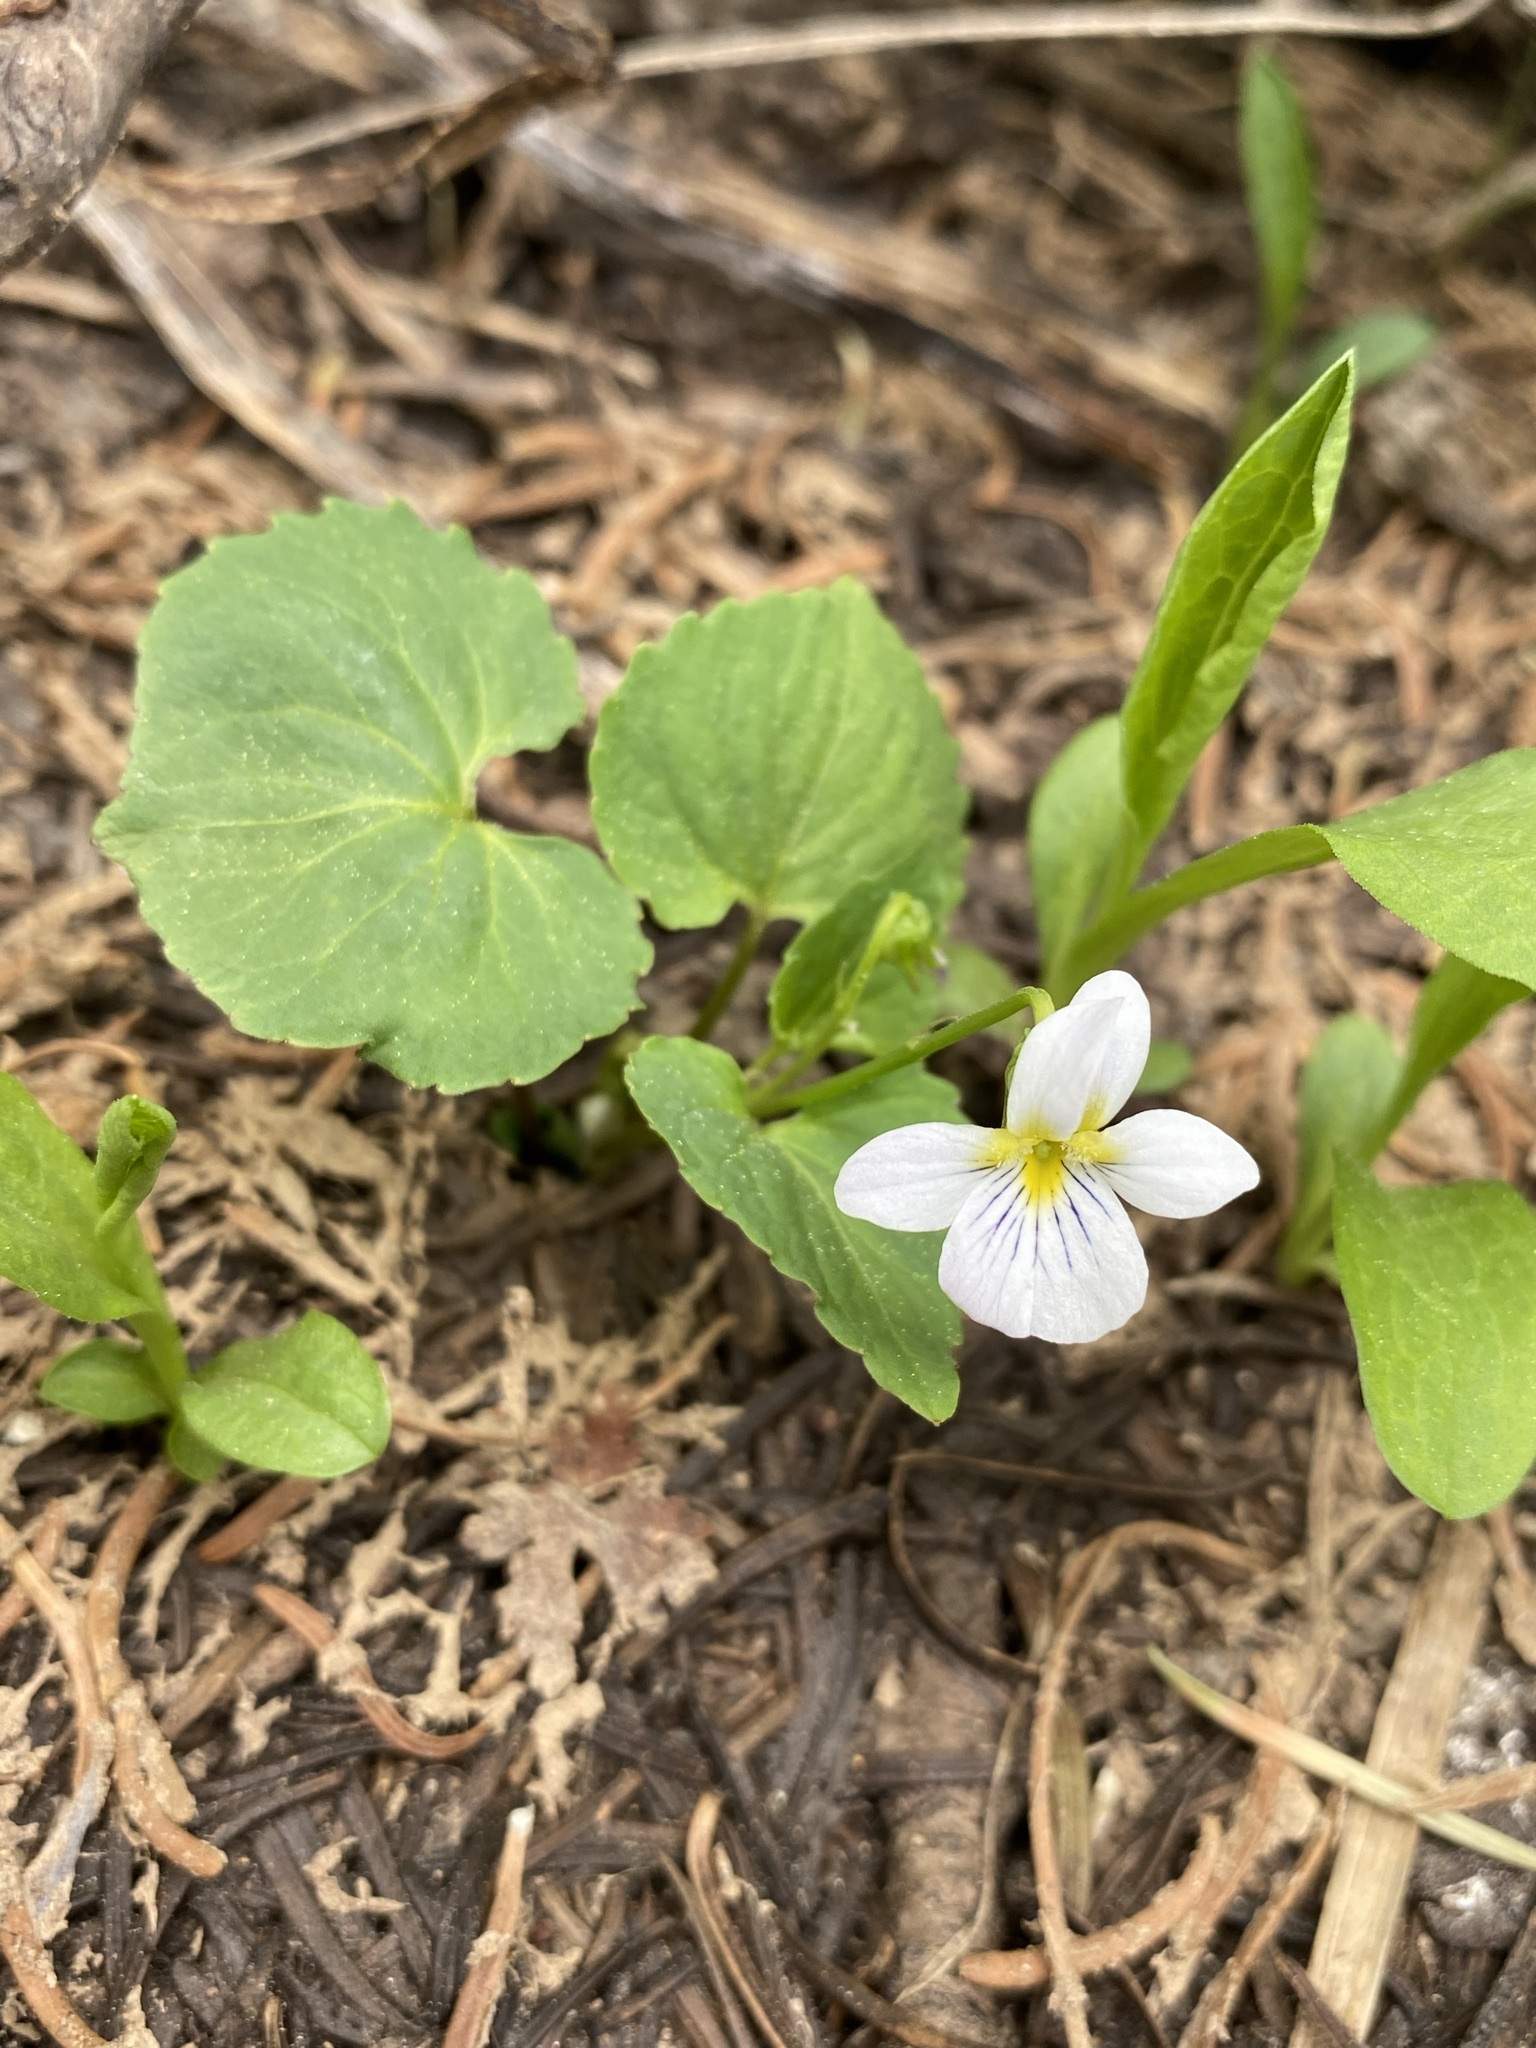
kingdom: Plantae
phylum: Tracheophyta
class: Magnoliopsida
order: Malpighiales
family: Violaceae
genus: Viola
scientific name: Viola canadensis
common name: Canada violet
